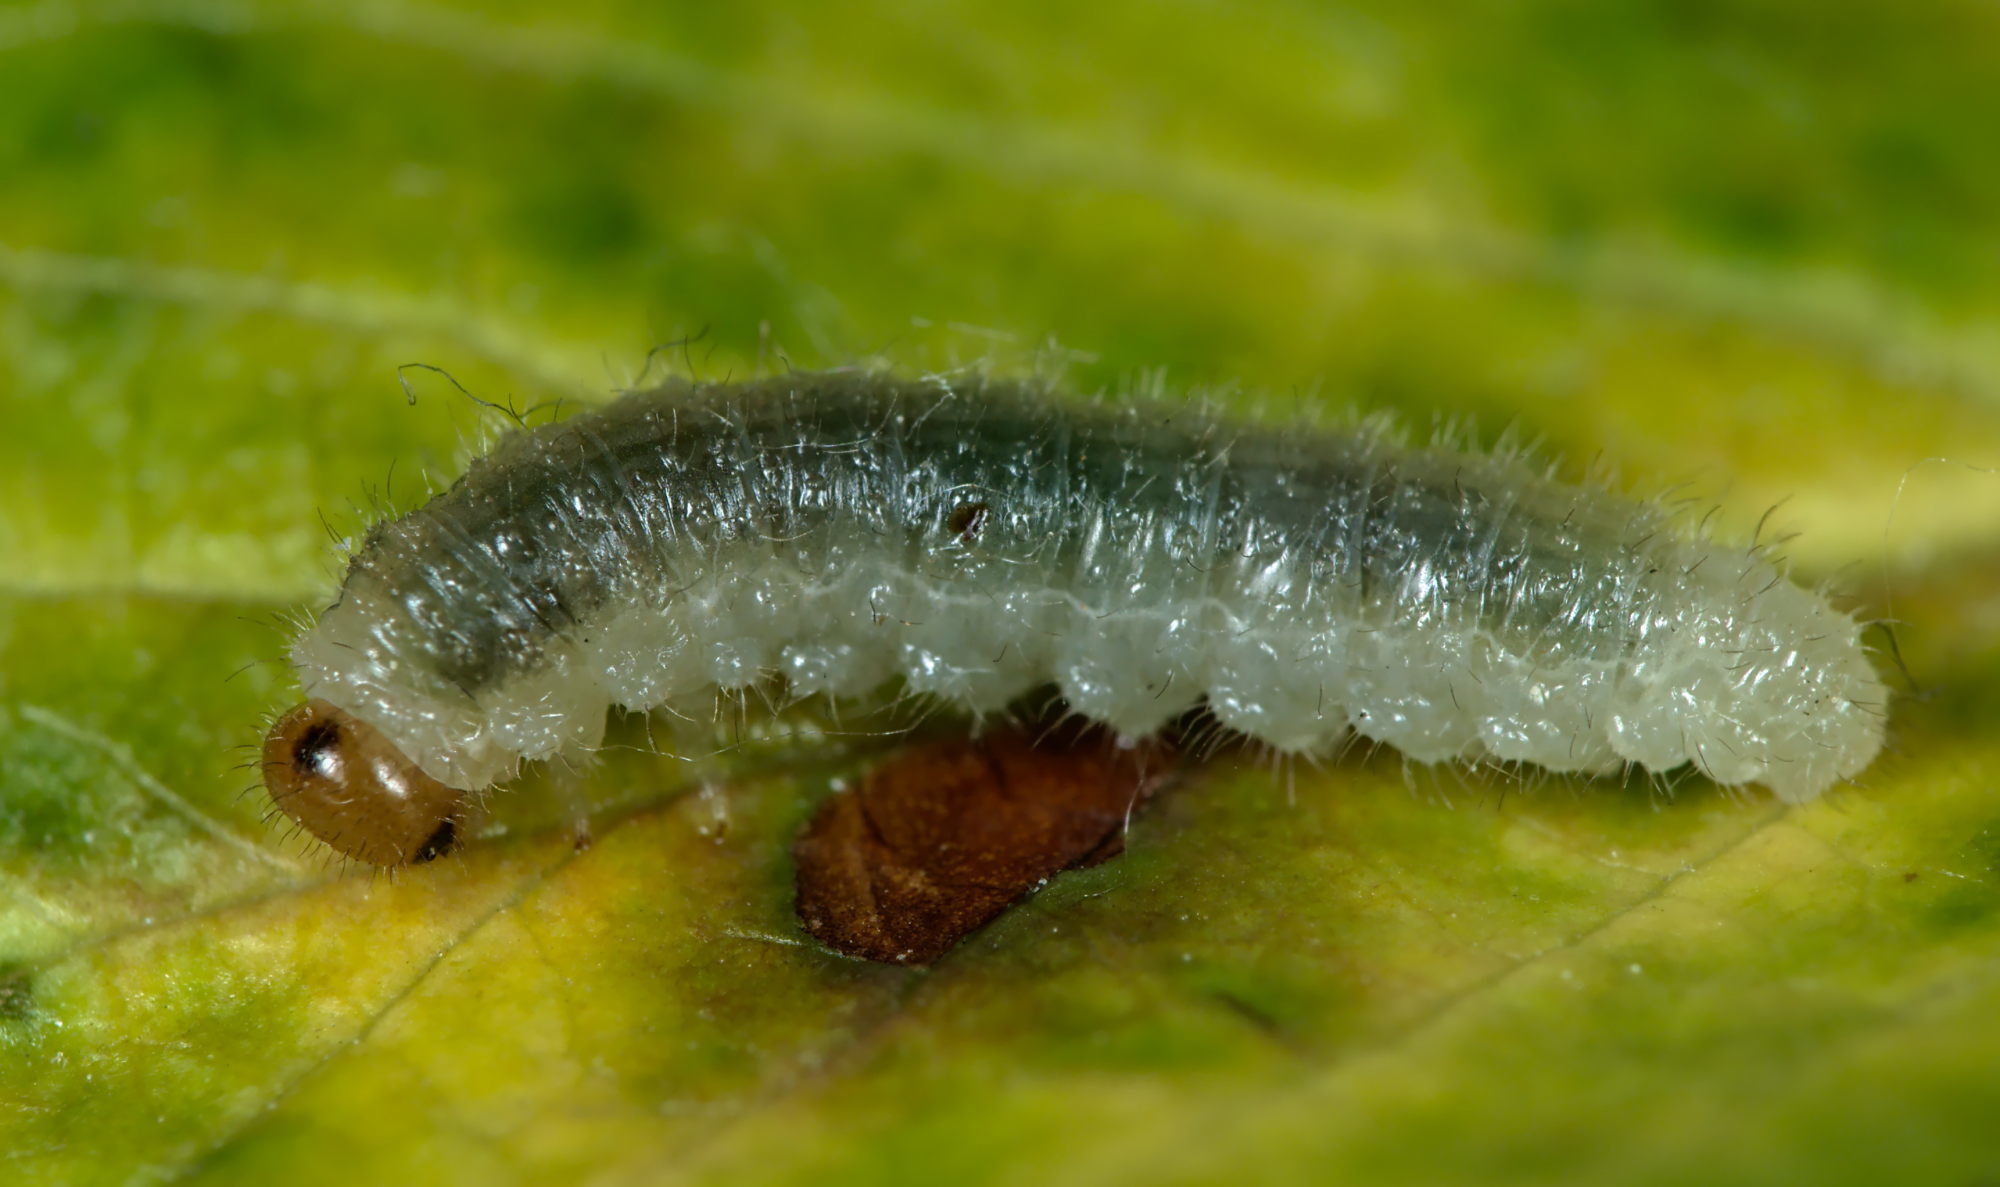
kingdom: Animalia
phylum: Arthropoda
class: Insecta
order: Hymenoptera
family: Tenthredinidae
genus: Cladius
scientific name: Cladius compressicornis
